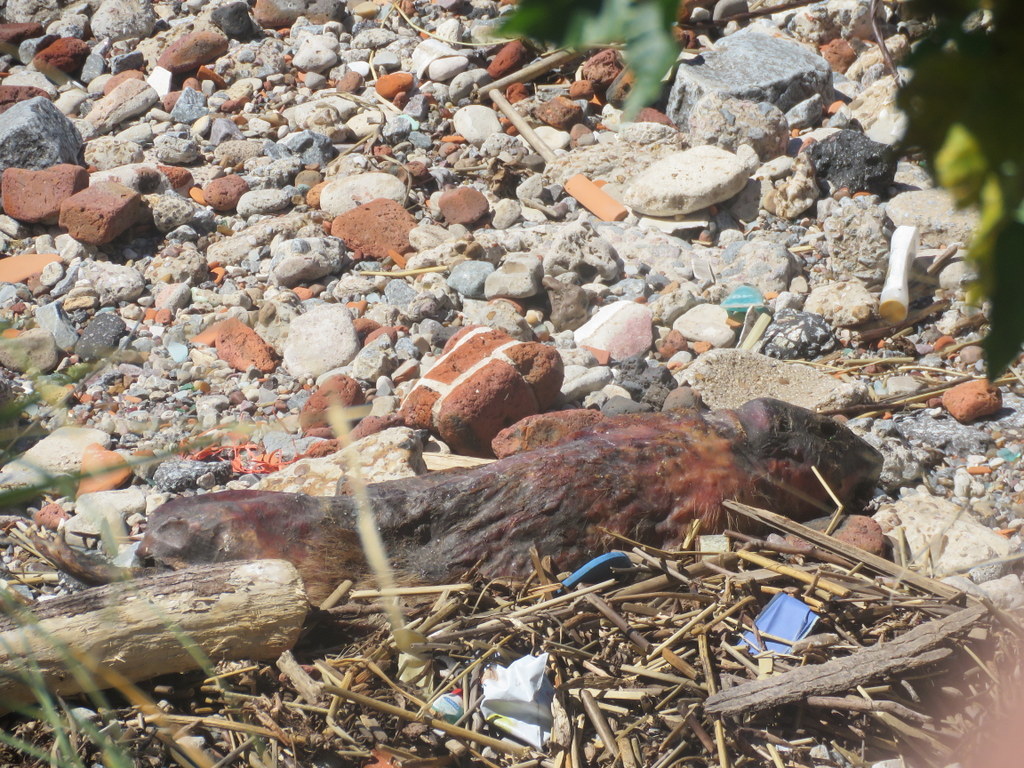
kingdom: Animalia
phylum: Chordata
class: Mammalia
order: Rodentia
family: Myocastoridae
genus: Myocastor
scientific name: Myocastor coypus
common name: Coypu
